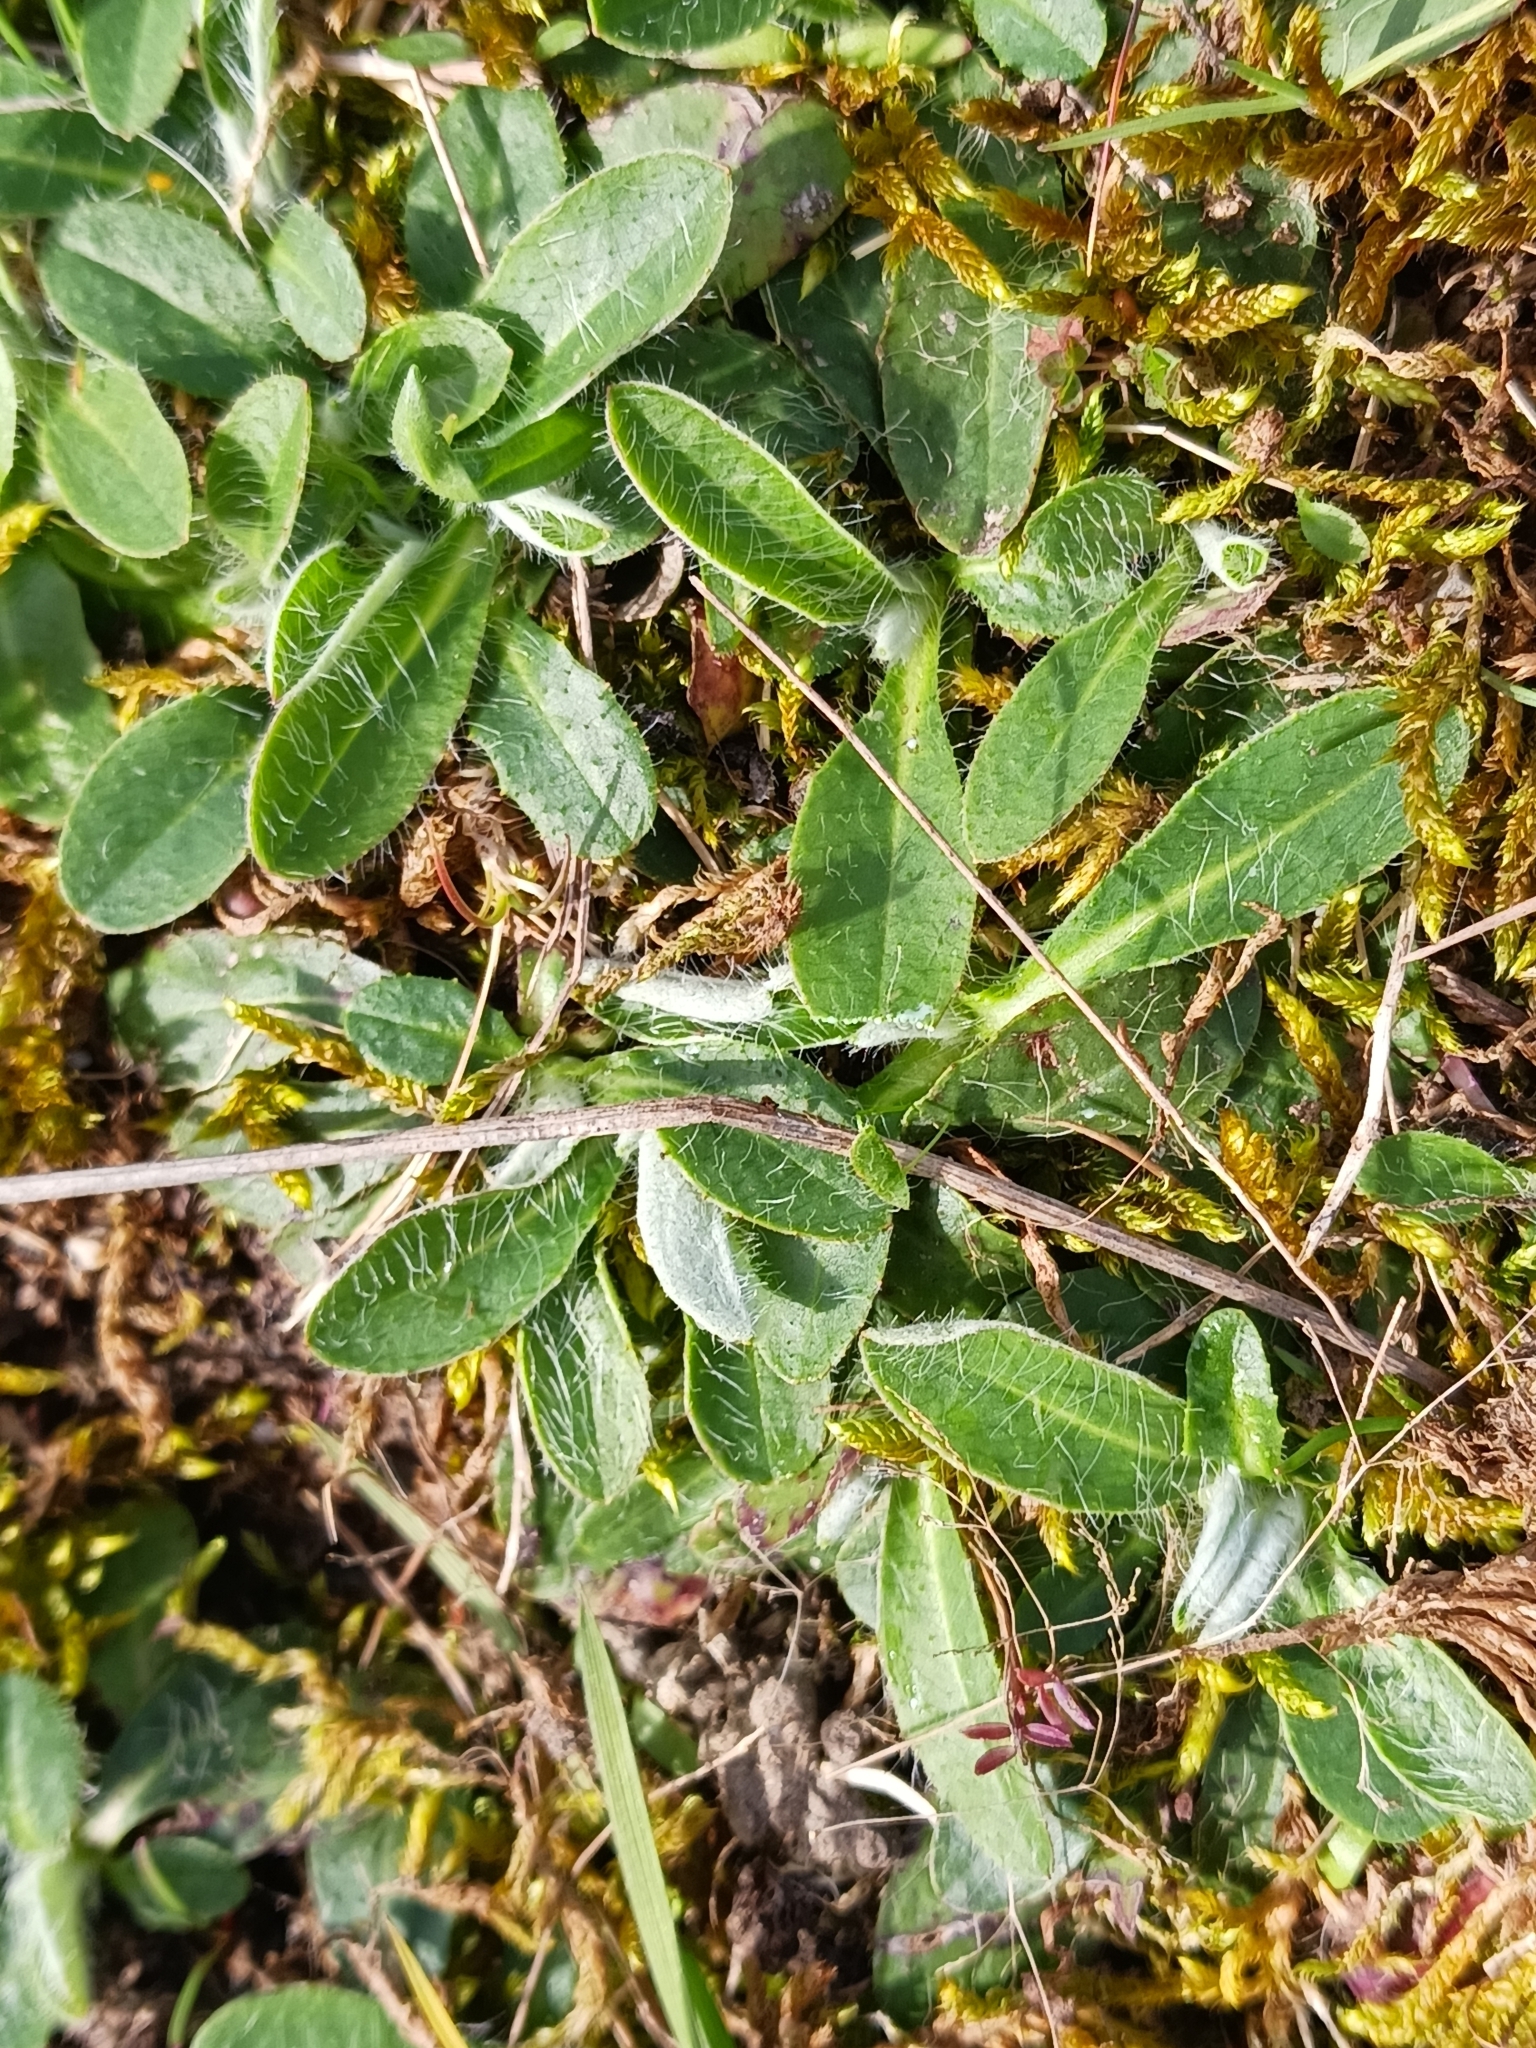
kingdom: Plantae
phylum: Tracheophyta
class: Magnoliopsida
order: Asterales
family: Asteraceae
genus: Pilosella
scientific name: Pilosella officinarum
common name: Mouse-ear hawkweed
